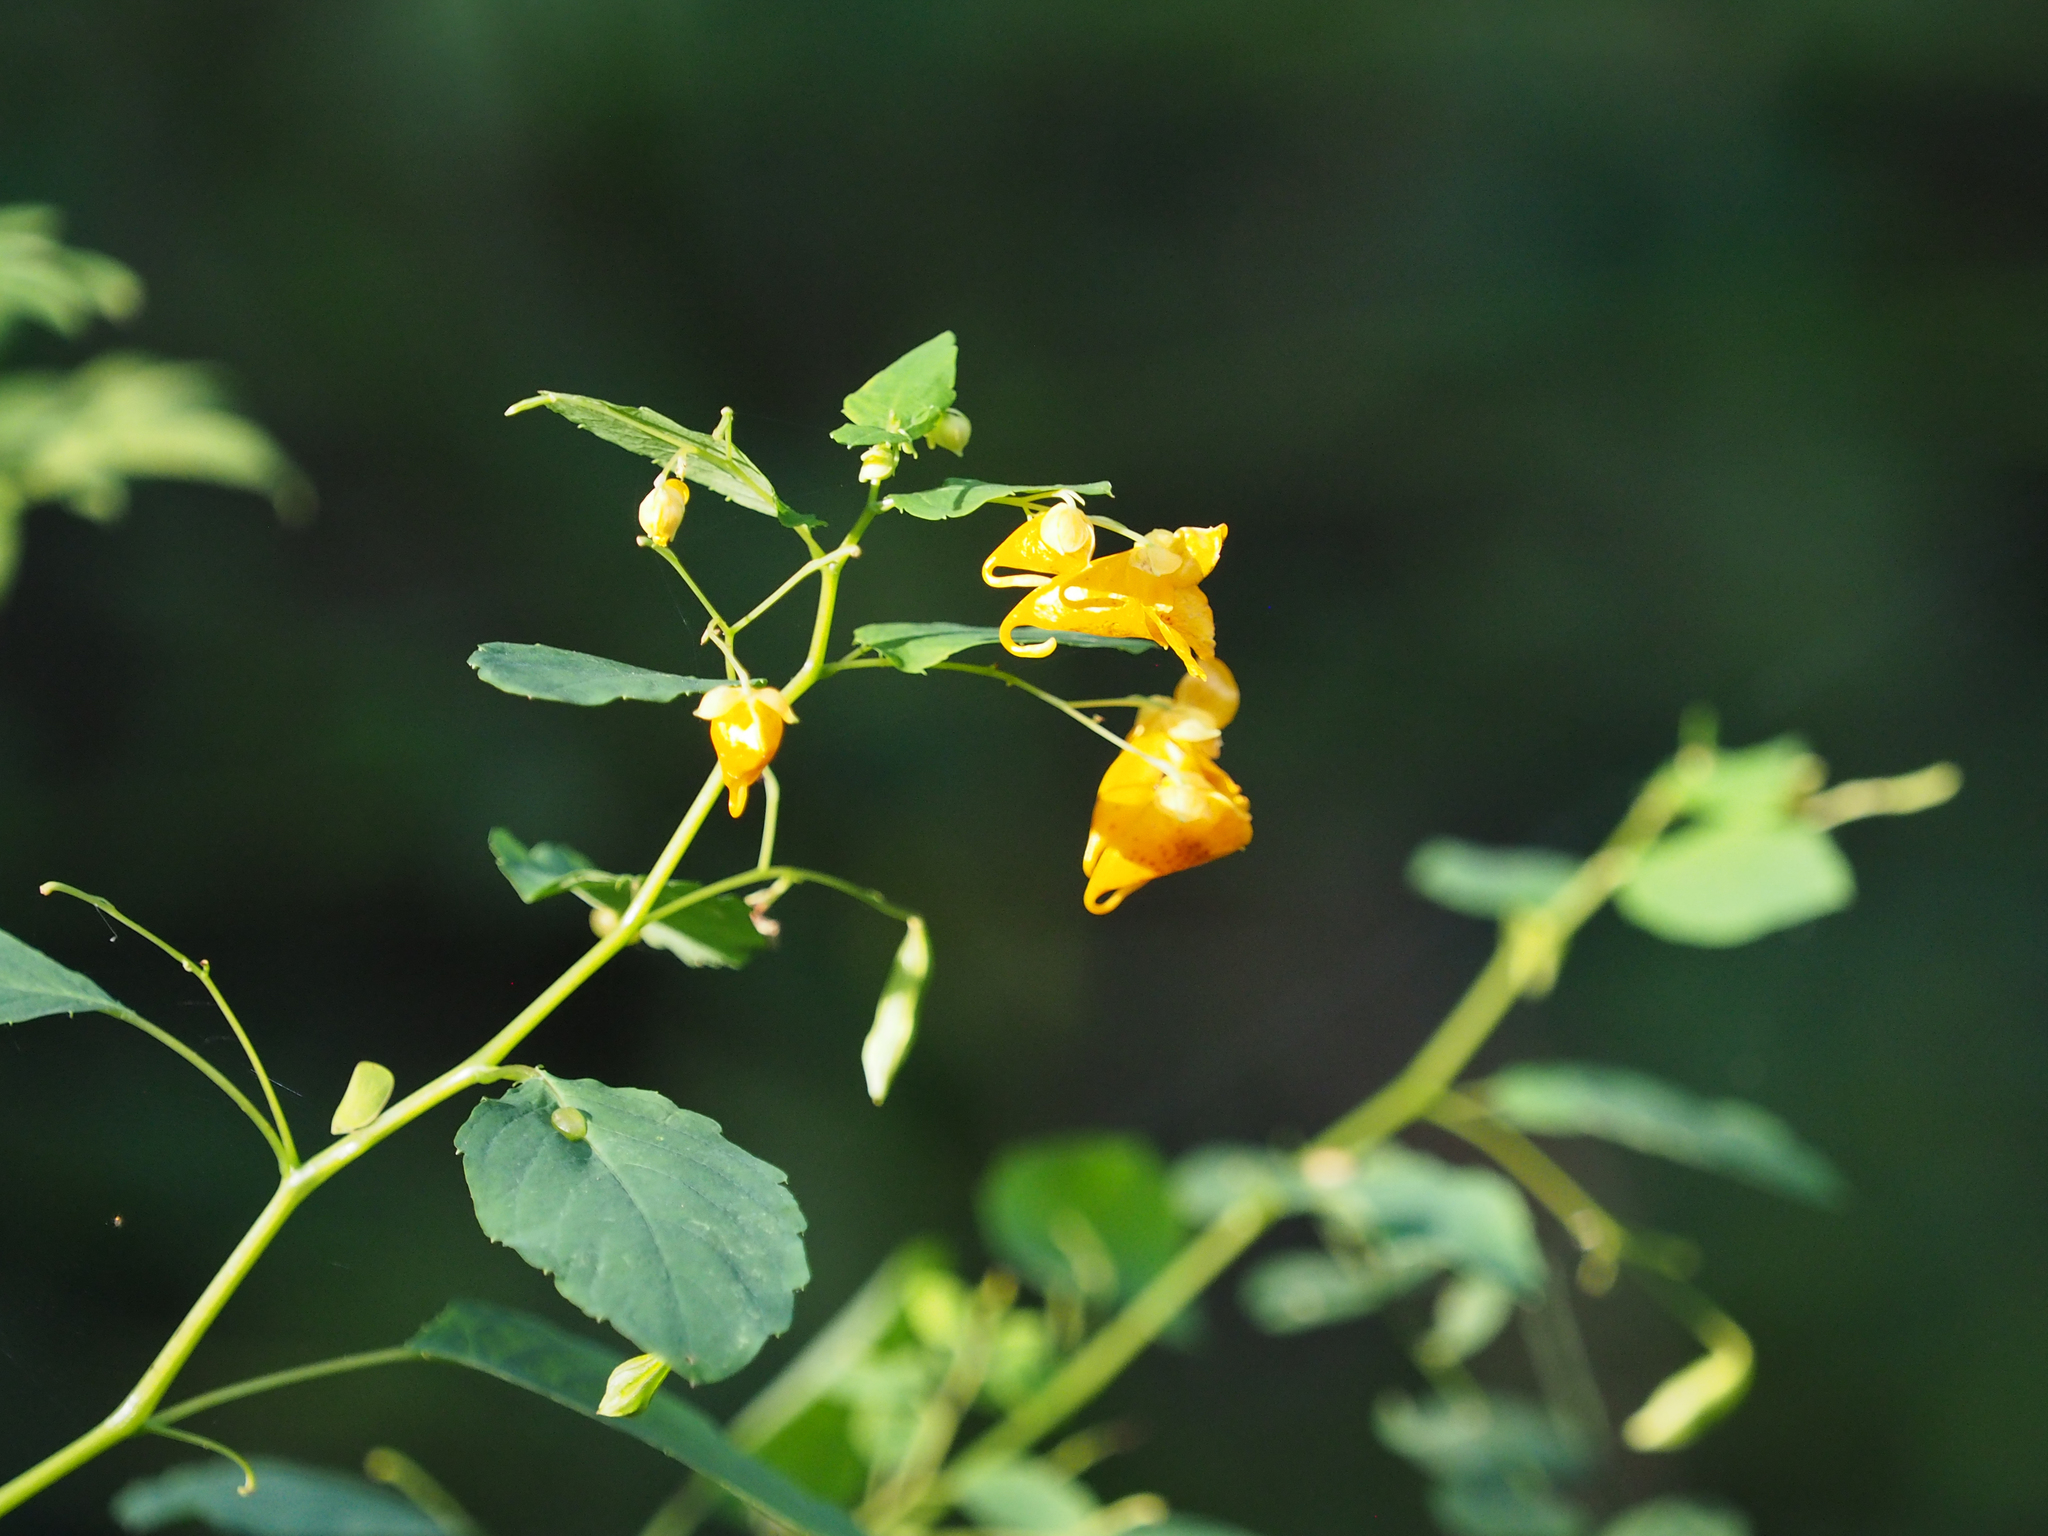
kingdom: Plantae
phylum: Tracheophyta
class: Magnoliopsida
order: Ericales
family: Balsaminaceae
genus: Impatiens
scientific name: Impatiens capensis
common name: Orange balsam
